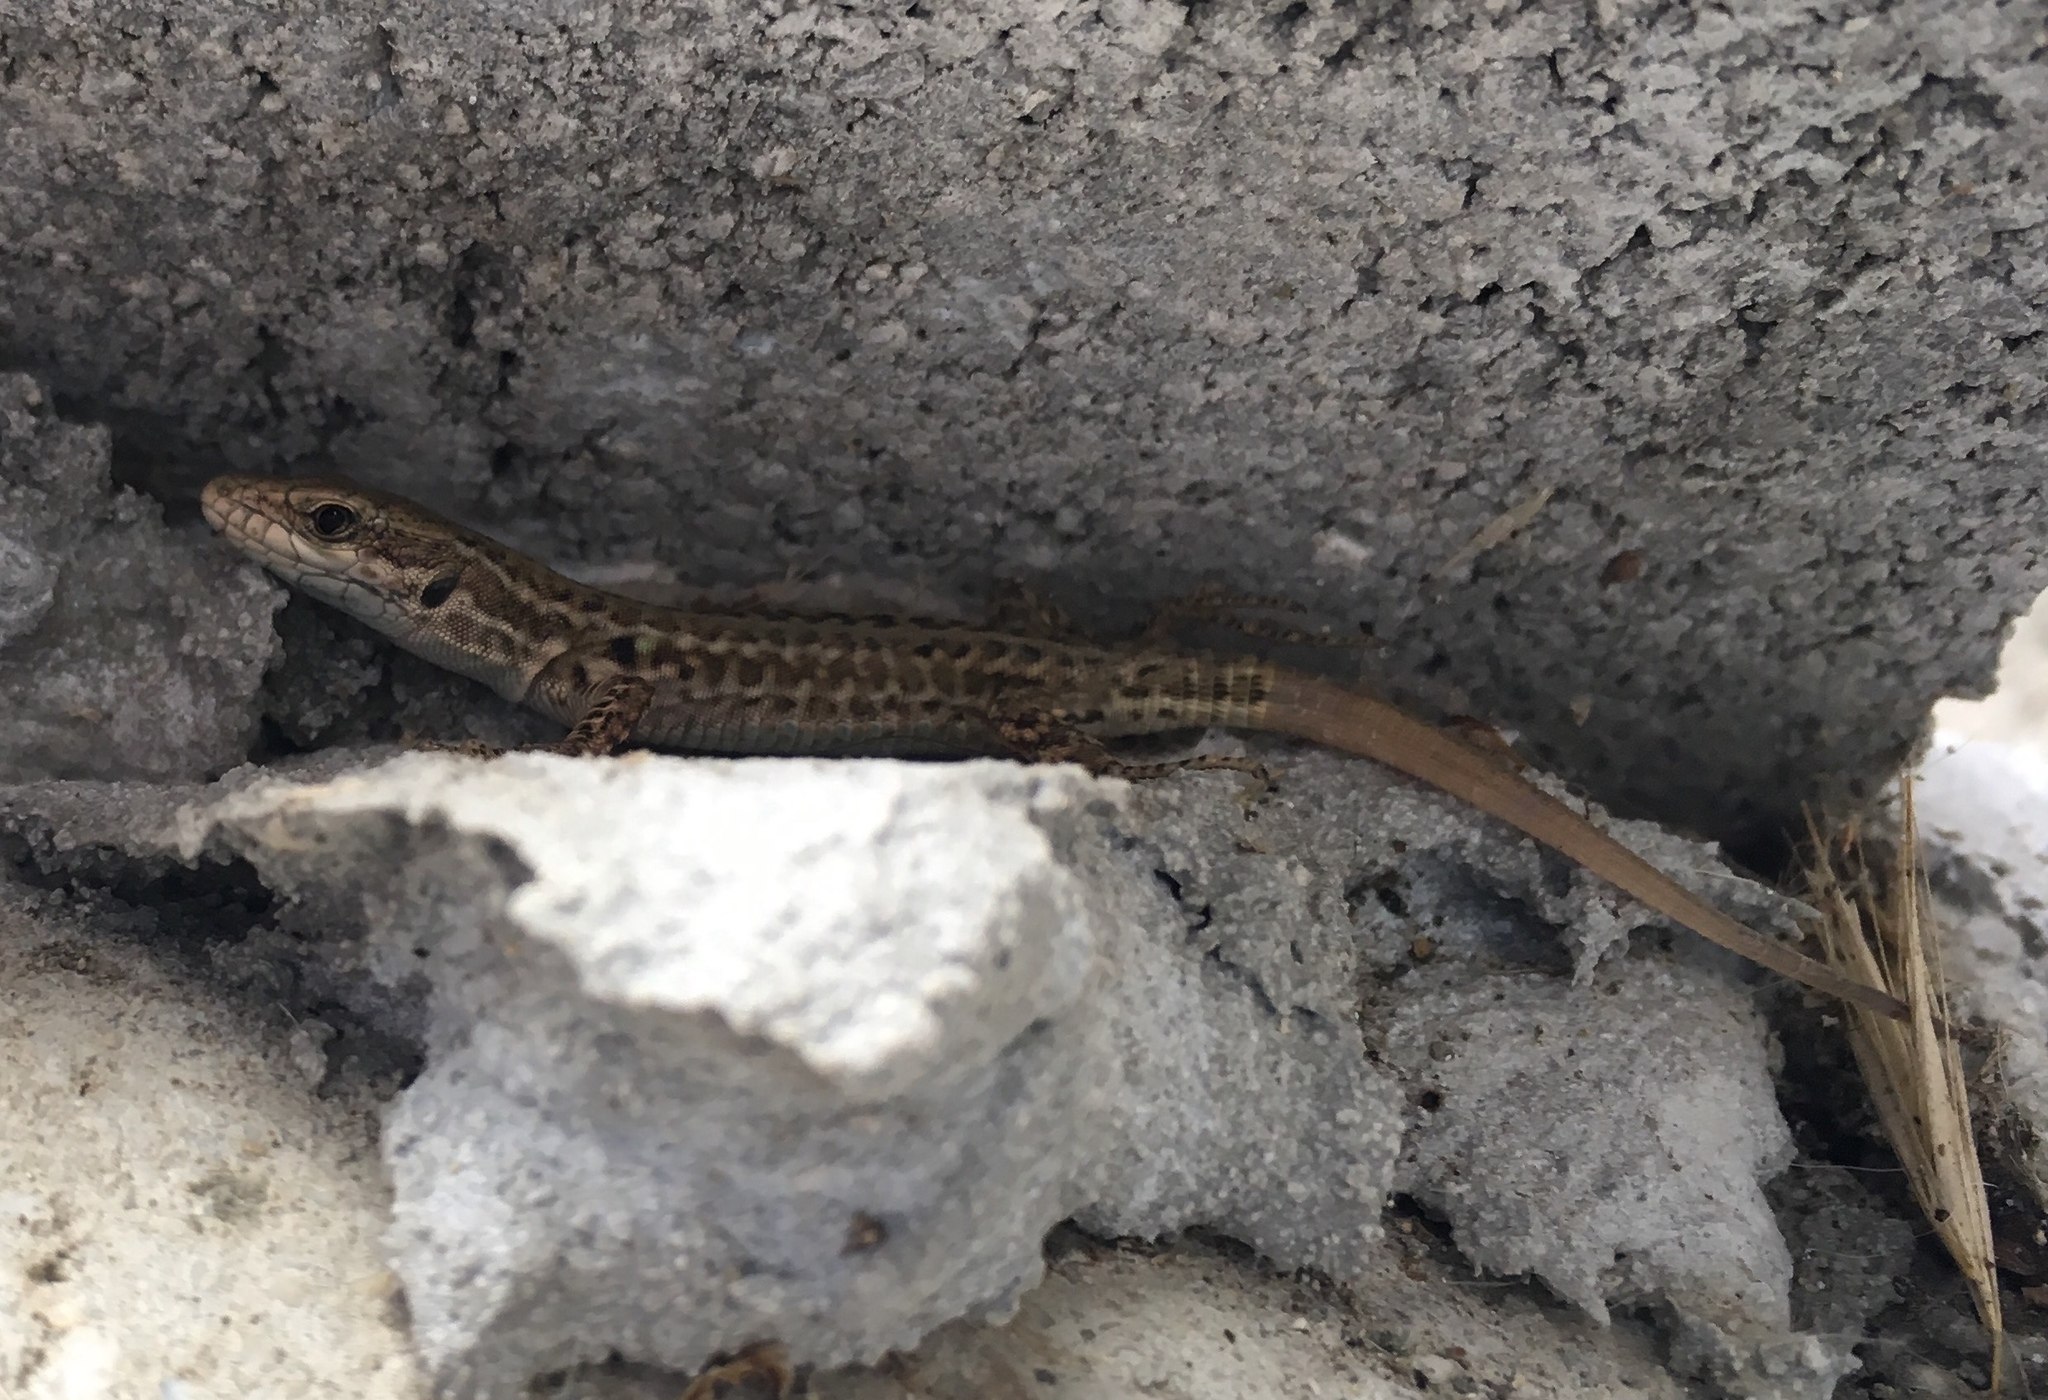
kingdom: Animalia
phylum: Chordata
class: Squamata
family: Lacertidae
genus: Podarcis
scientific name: Podarcis siculus
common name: Italian wall lizard
